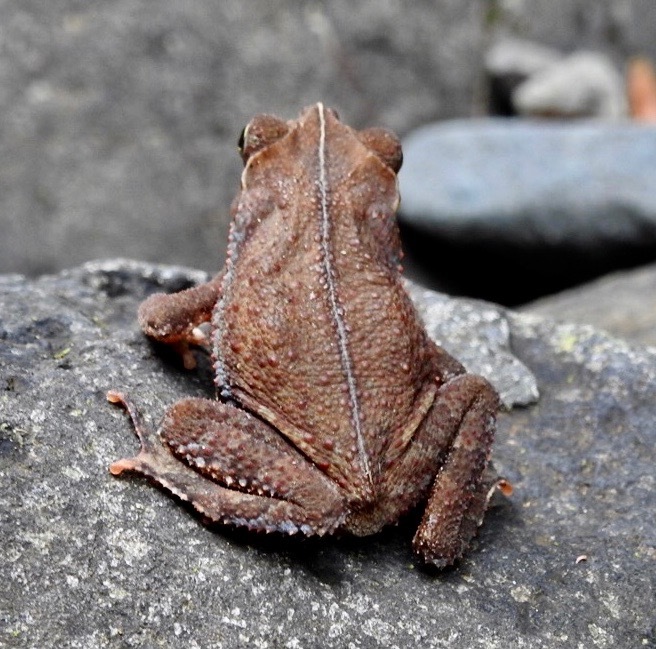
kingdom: Animalia
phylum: Chordata
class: Amphibia
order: Anura
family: Bufonidae
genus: Rhinella
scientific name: Rhinella alata
